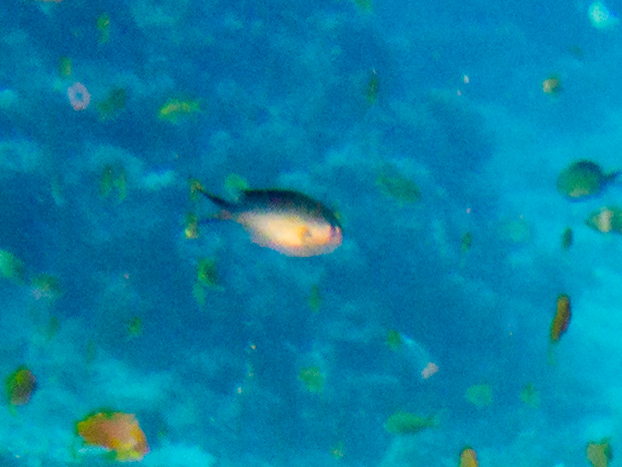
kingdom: Animalia
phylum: Chordata
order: Perciformes
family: Pomacentridae
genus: Chromis
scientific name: Chromis flavaxilla
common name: Arabian chromis
